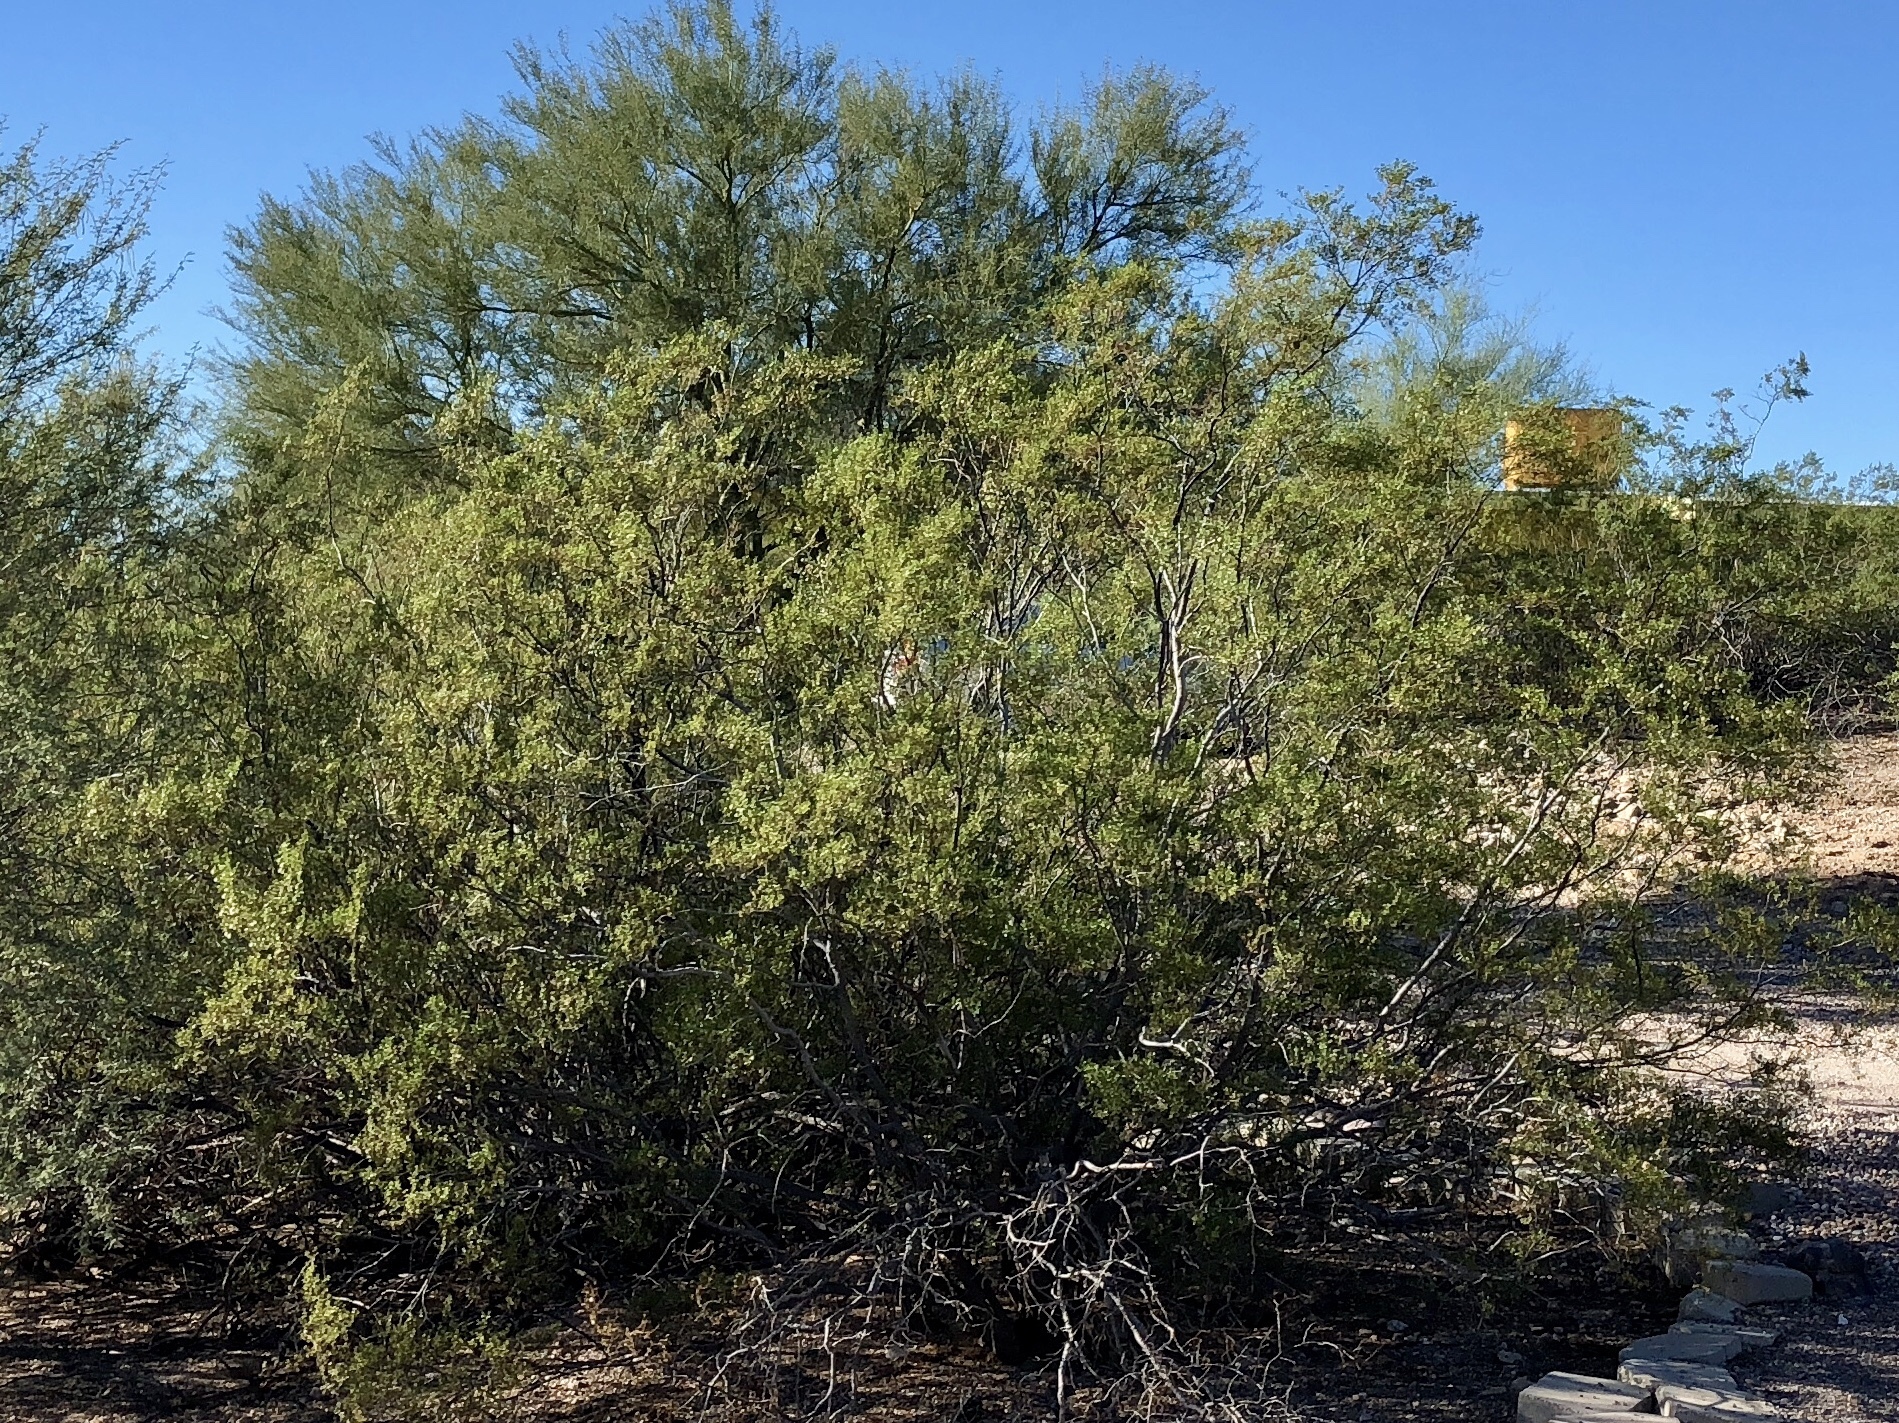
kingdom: Plantae
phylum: Tracheophyta
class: Magnoliopsida
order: Zygophyllales
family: Zygophyllaceae
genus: Larrea
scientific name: Larrea tridentata
